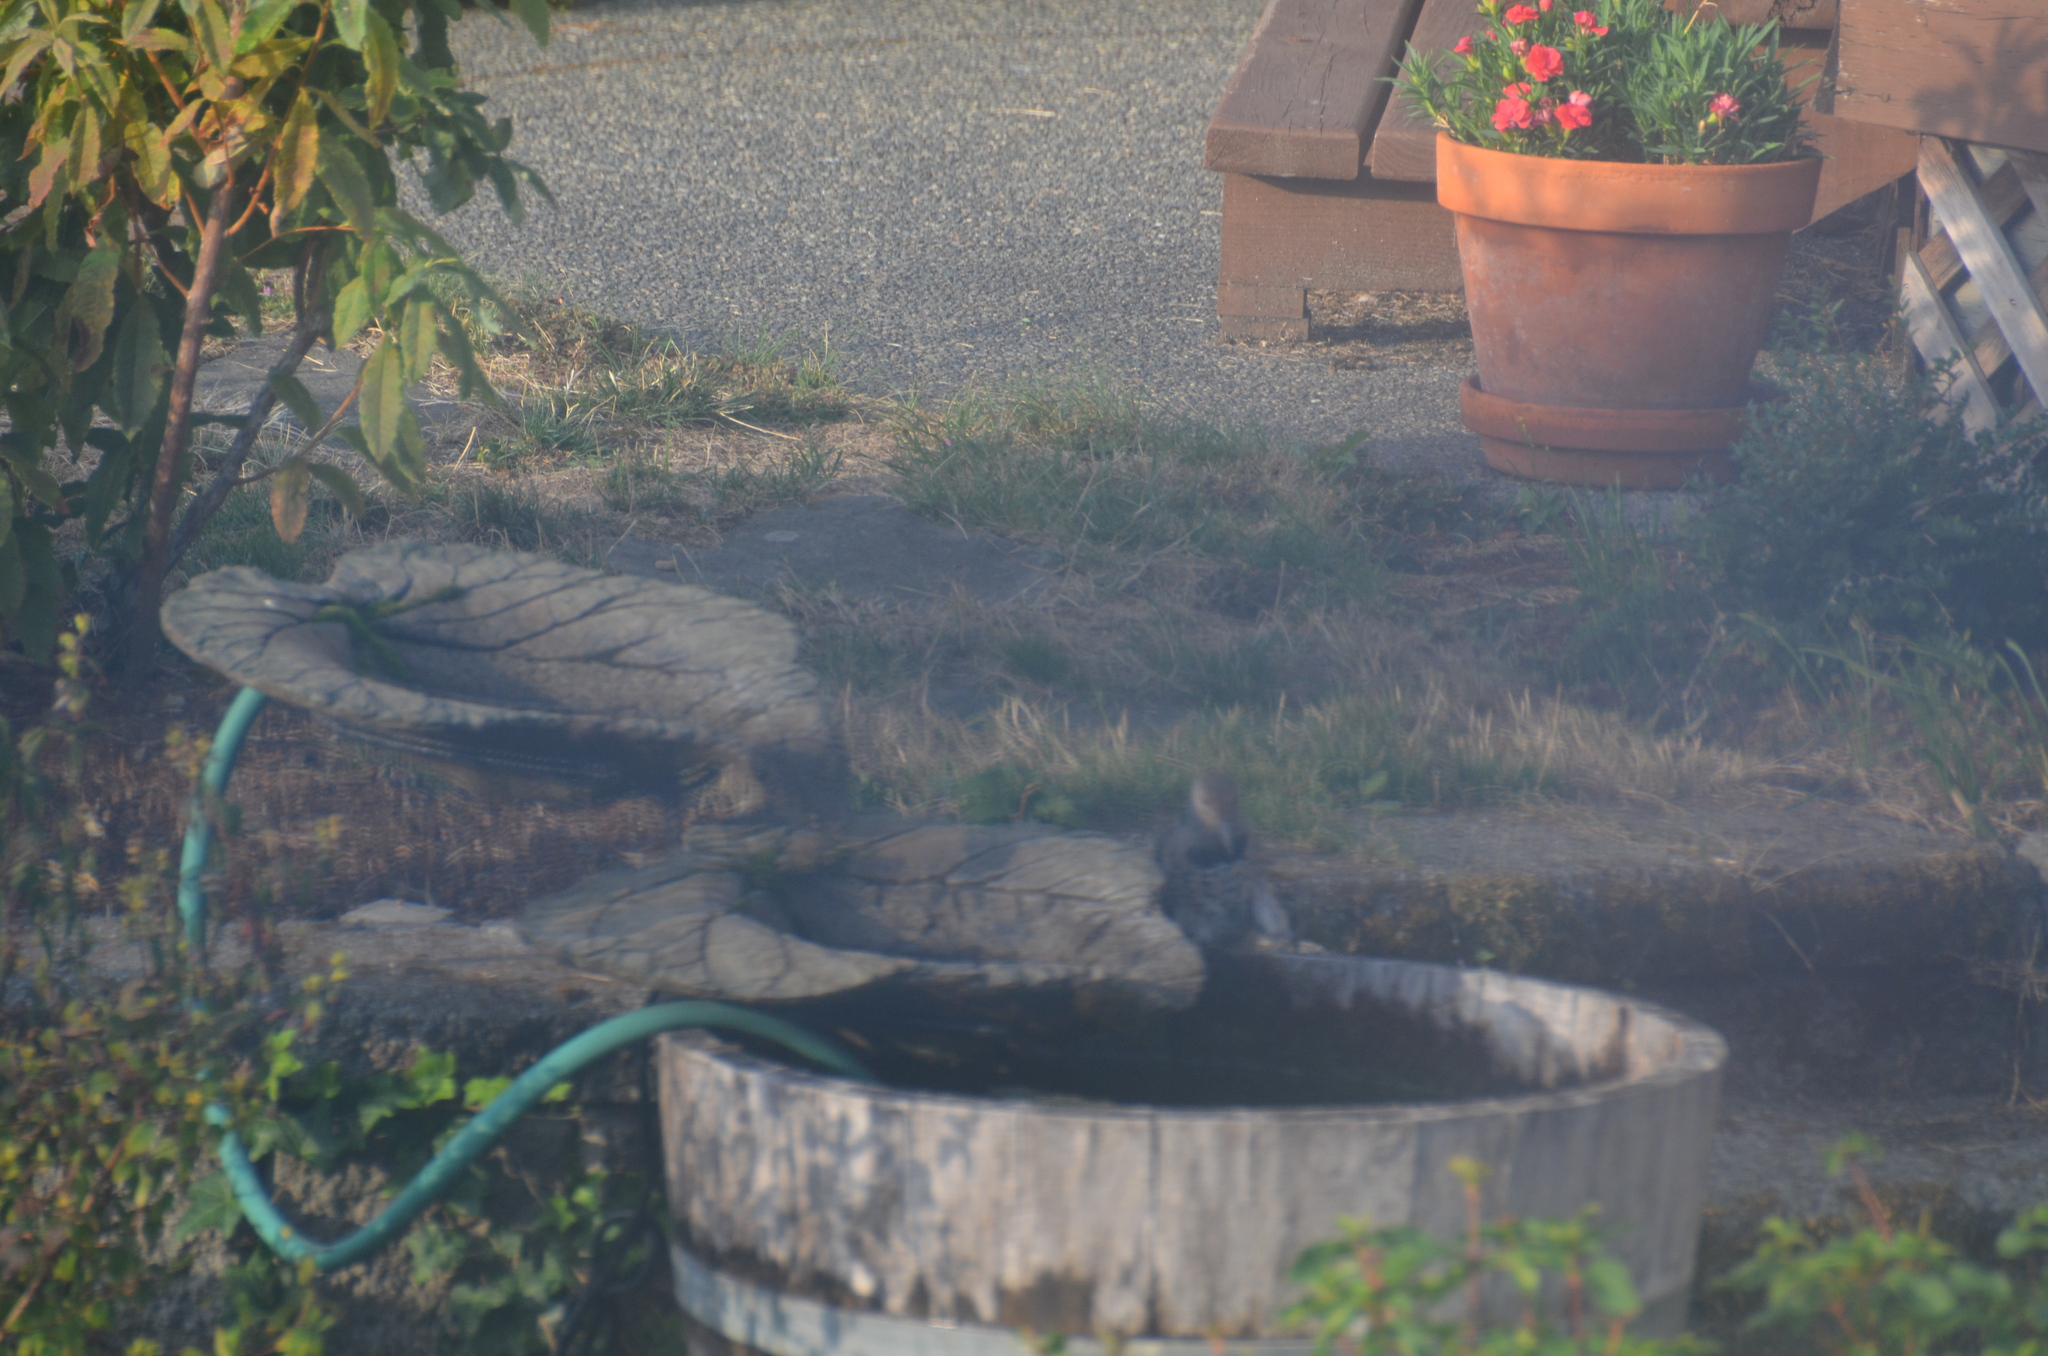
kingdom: Animalia
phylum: Chordata
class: Aves
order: Piciformes
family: Picidae
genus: Colaptes
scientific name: Colaptes auratus
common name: Northern flicker
